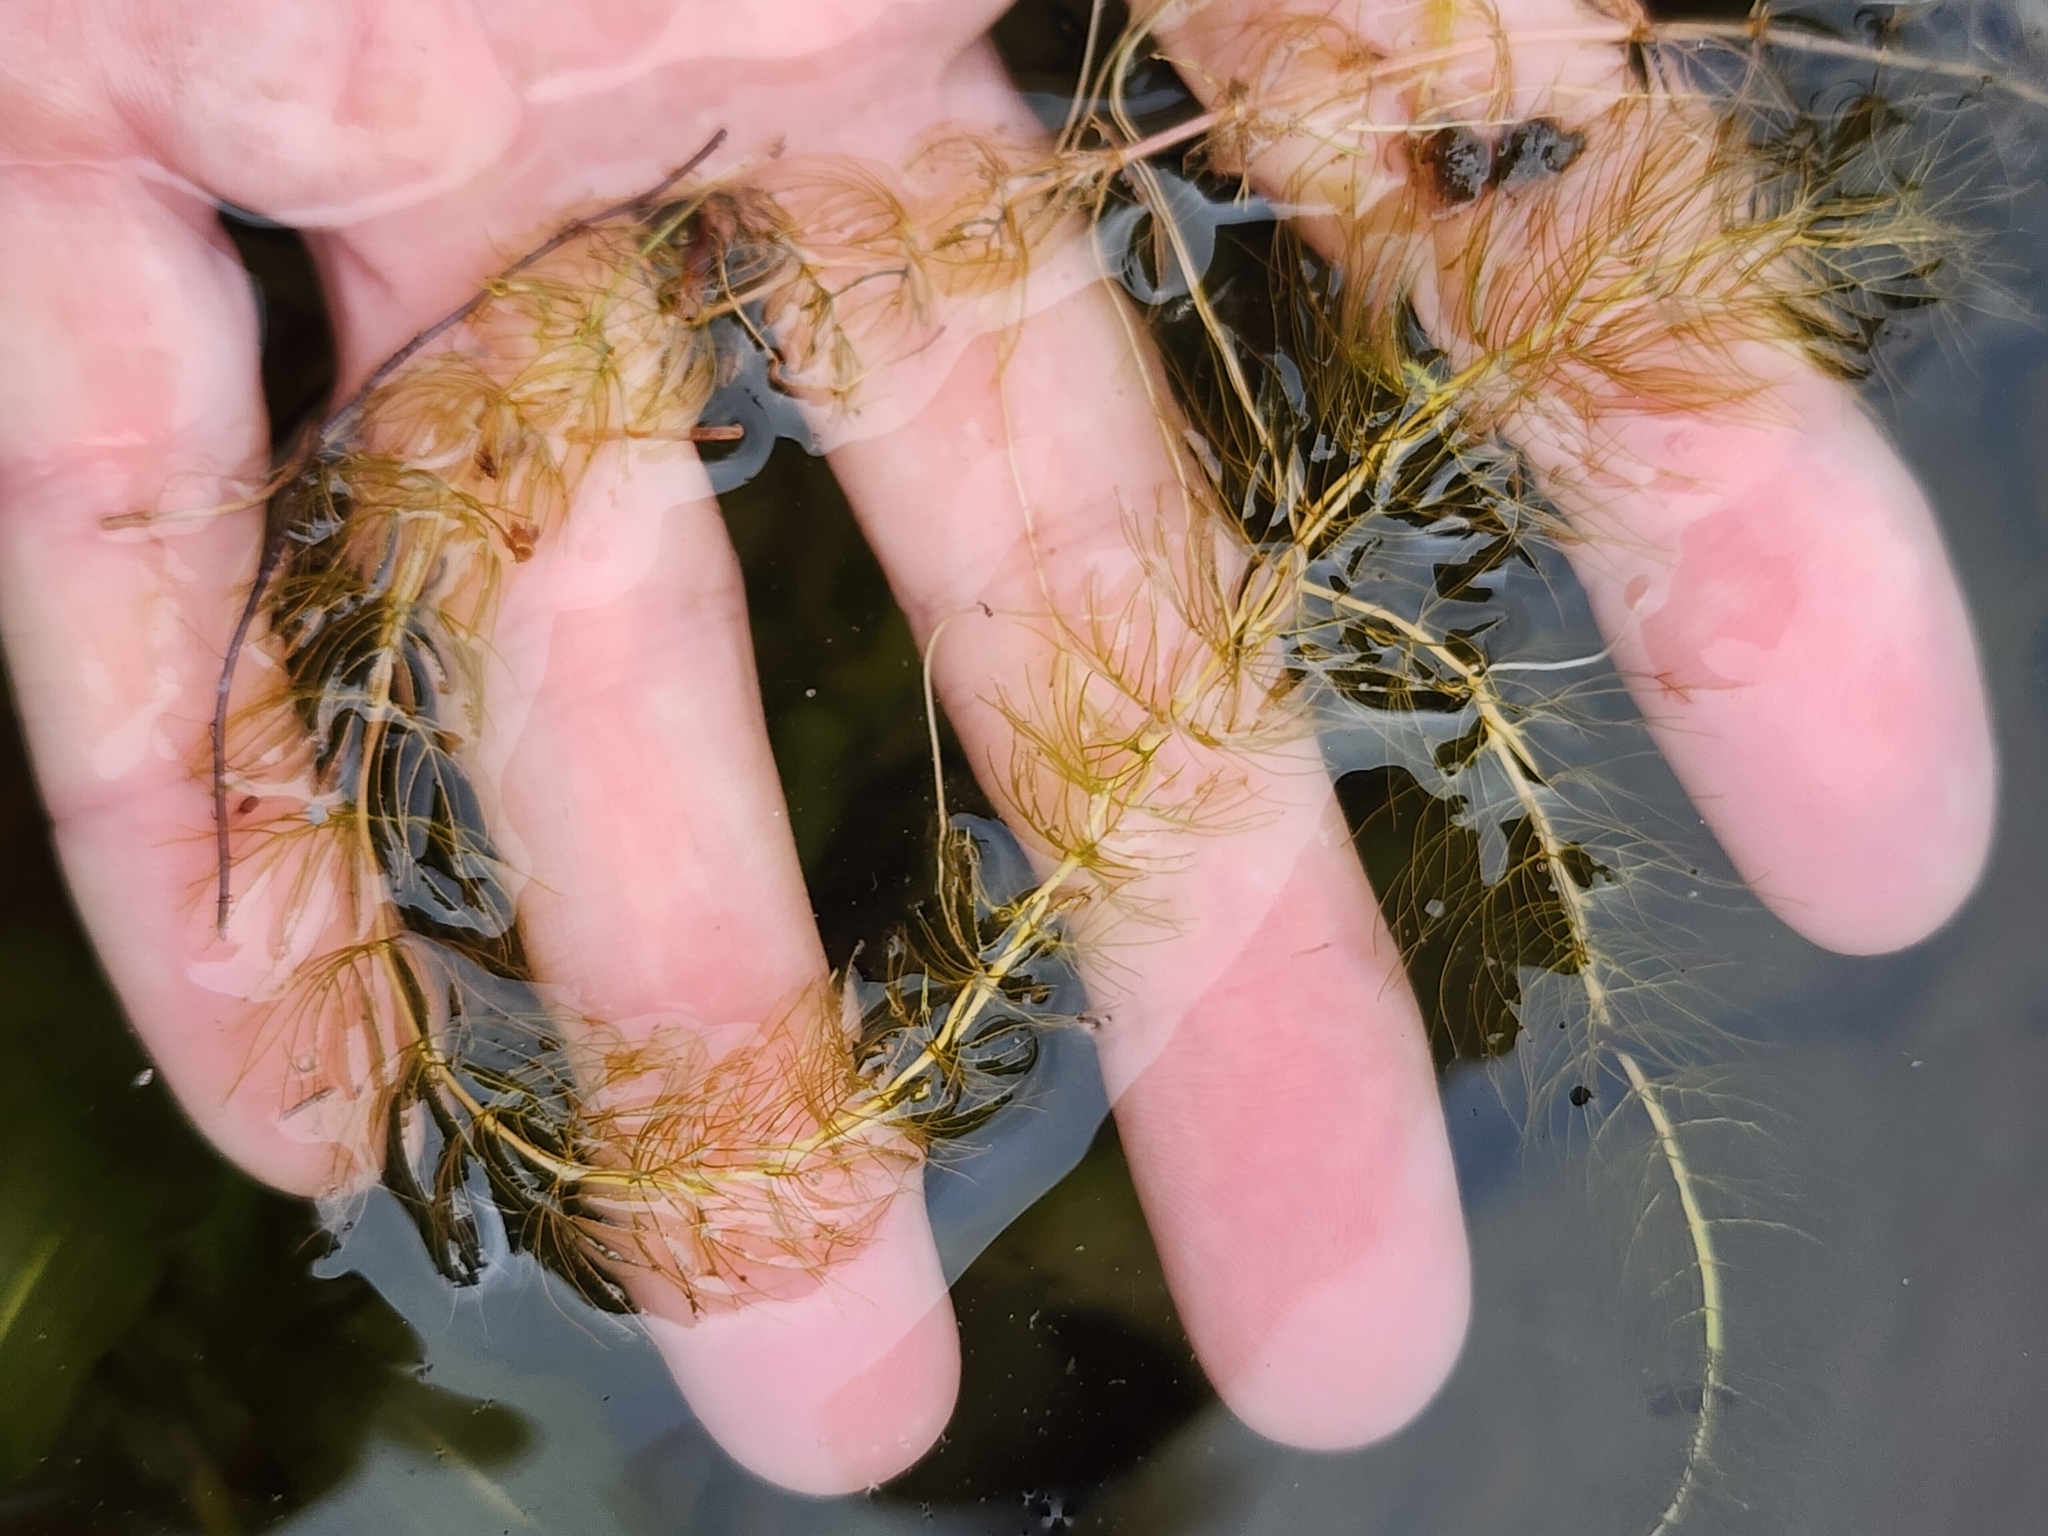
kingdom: Plantae
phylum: Tracheophyta
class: Magnoliopsida
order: Saxifragales
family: Haloragaceae
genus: Myriophyllum
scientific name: Myriophyllum alterniflorum
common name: Alternate water-milfoil
